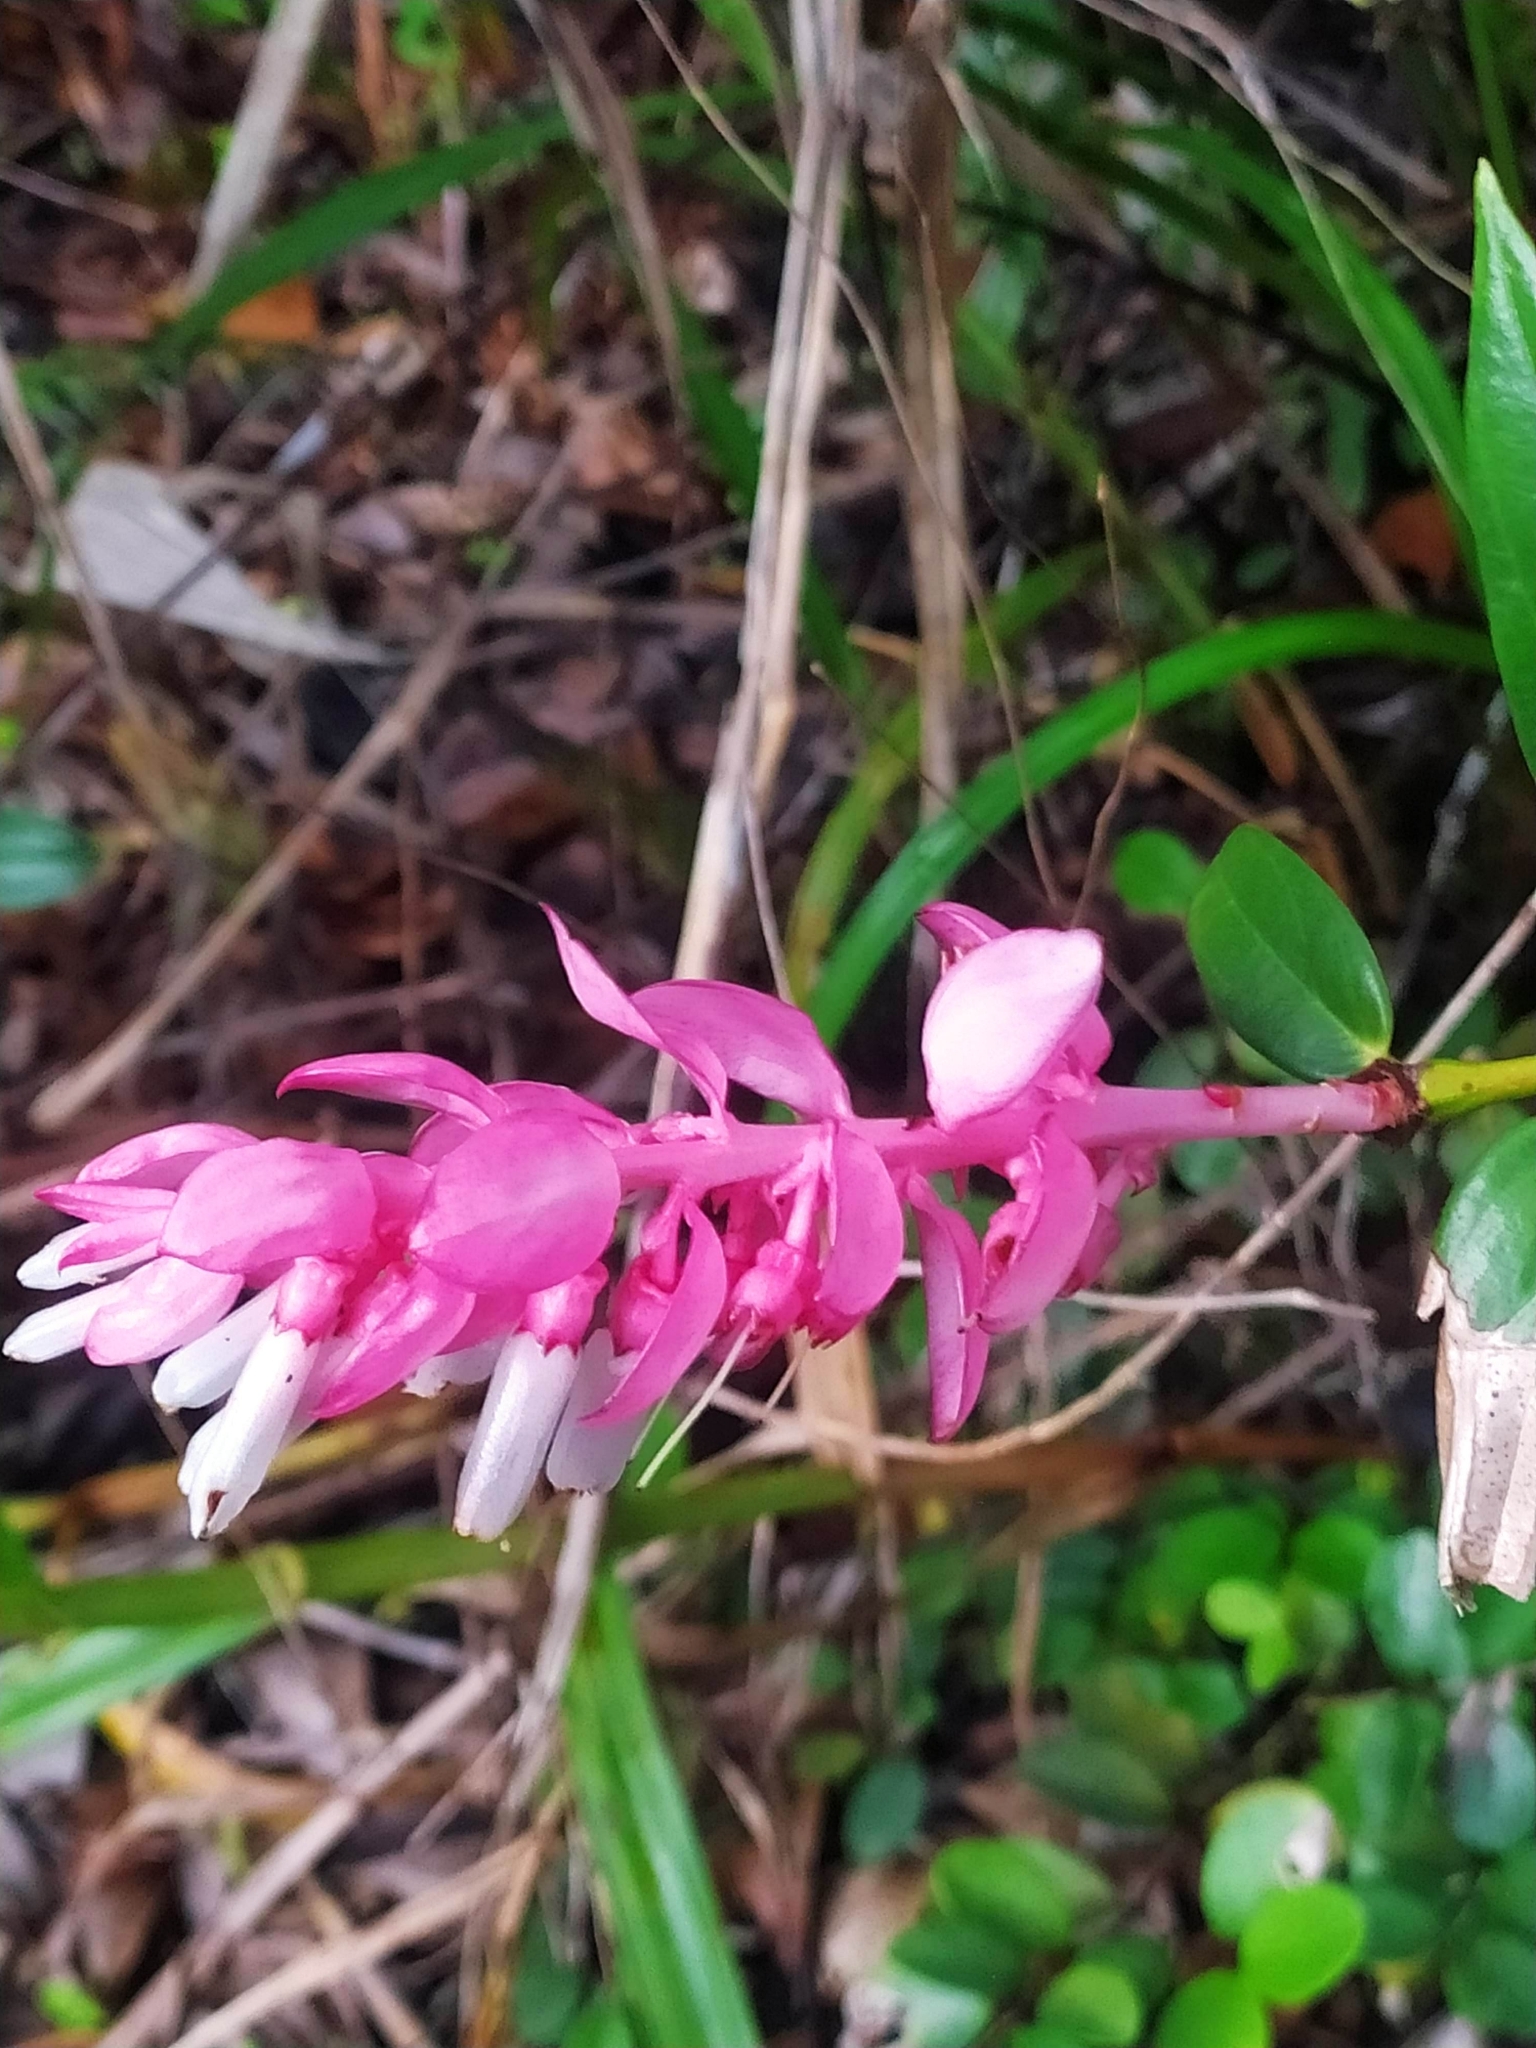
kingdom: Plantae
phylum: Tracheophyta
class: Magnoliopsida
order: Ericales
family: Ericaceae
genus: Cavendishia
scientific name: Cavendishia callista
